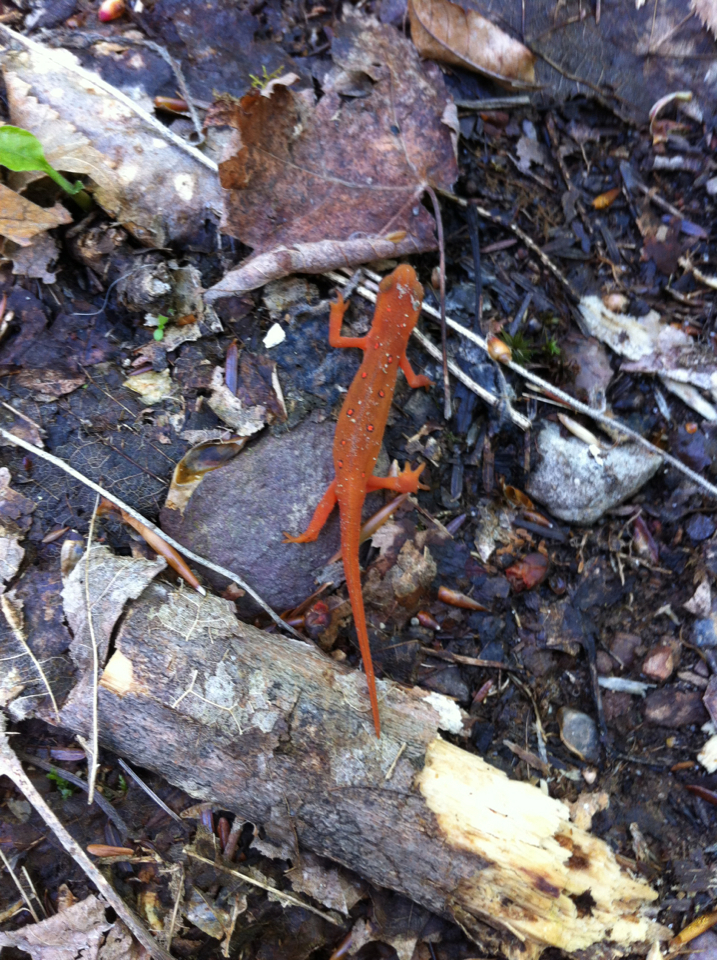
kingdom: Animalia
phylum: Chordata
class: Amphibia
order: Caudata
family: Salamandridae
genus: Notophthalmus
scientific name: Notophthalmus viridescens
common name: Eastern newt
